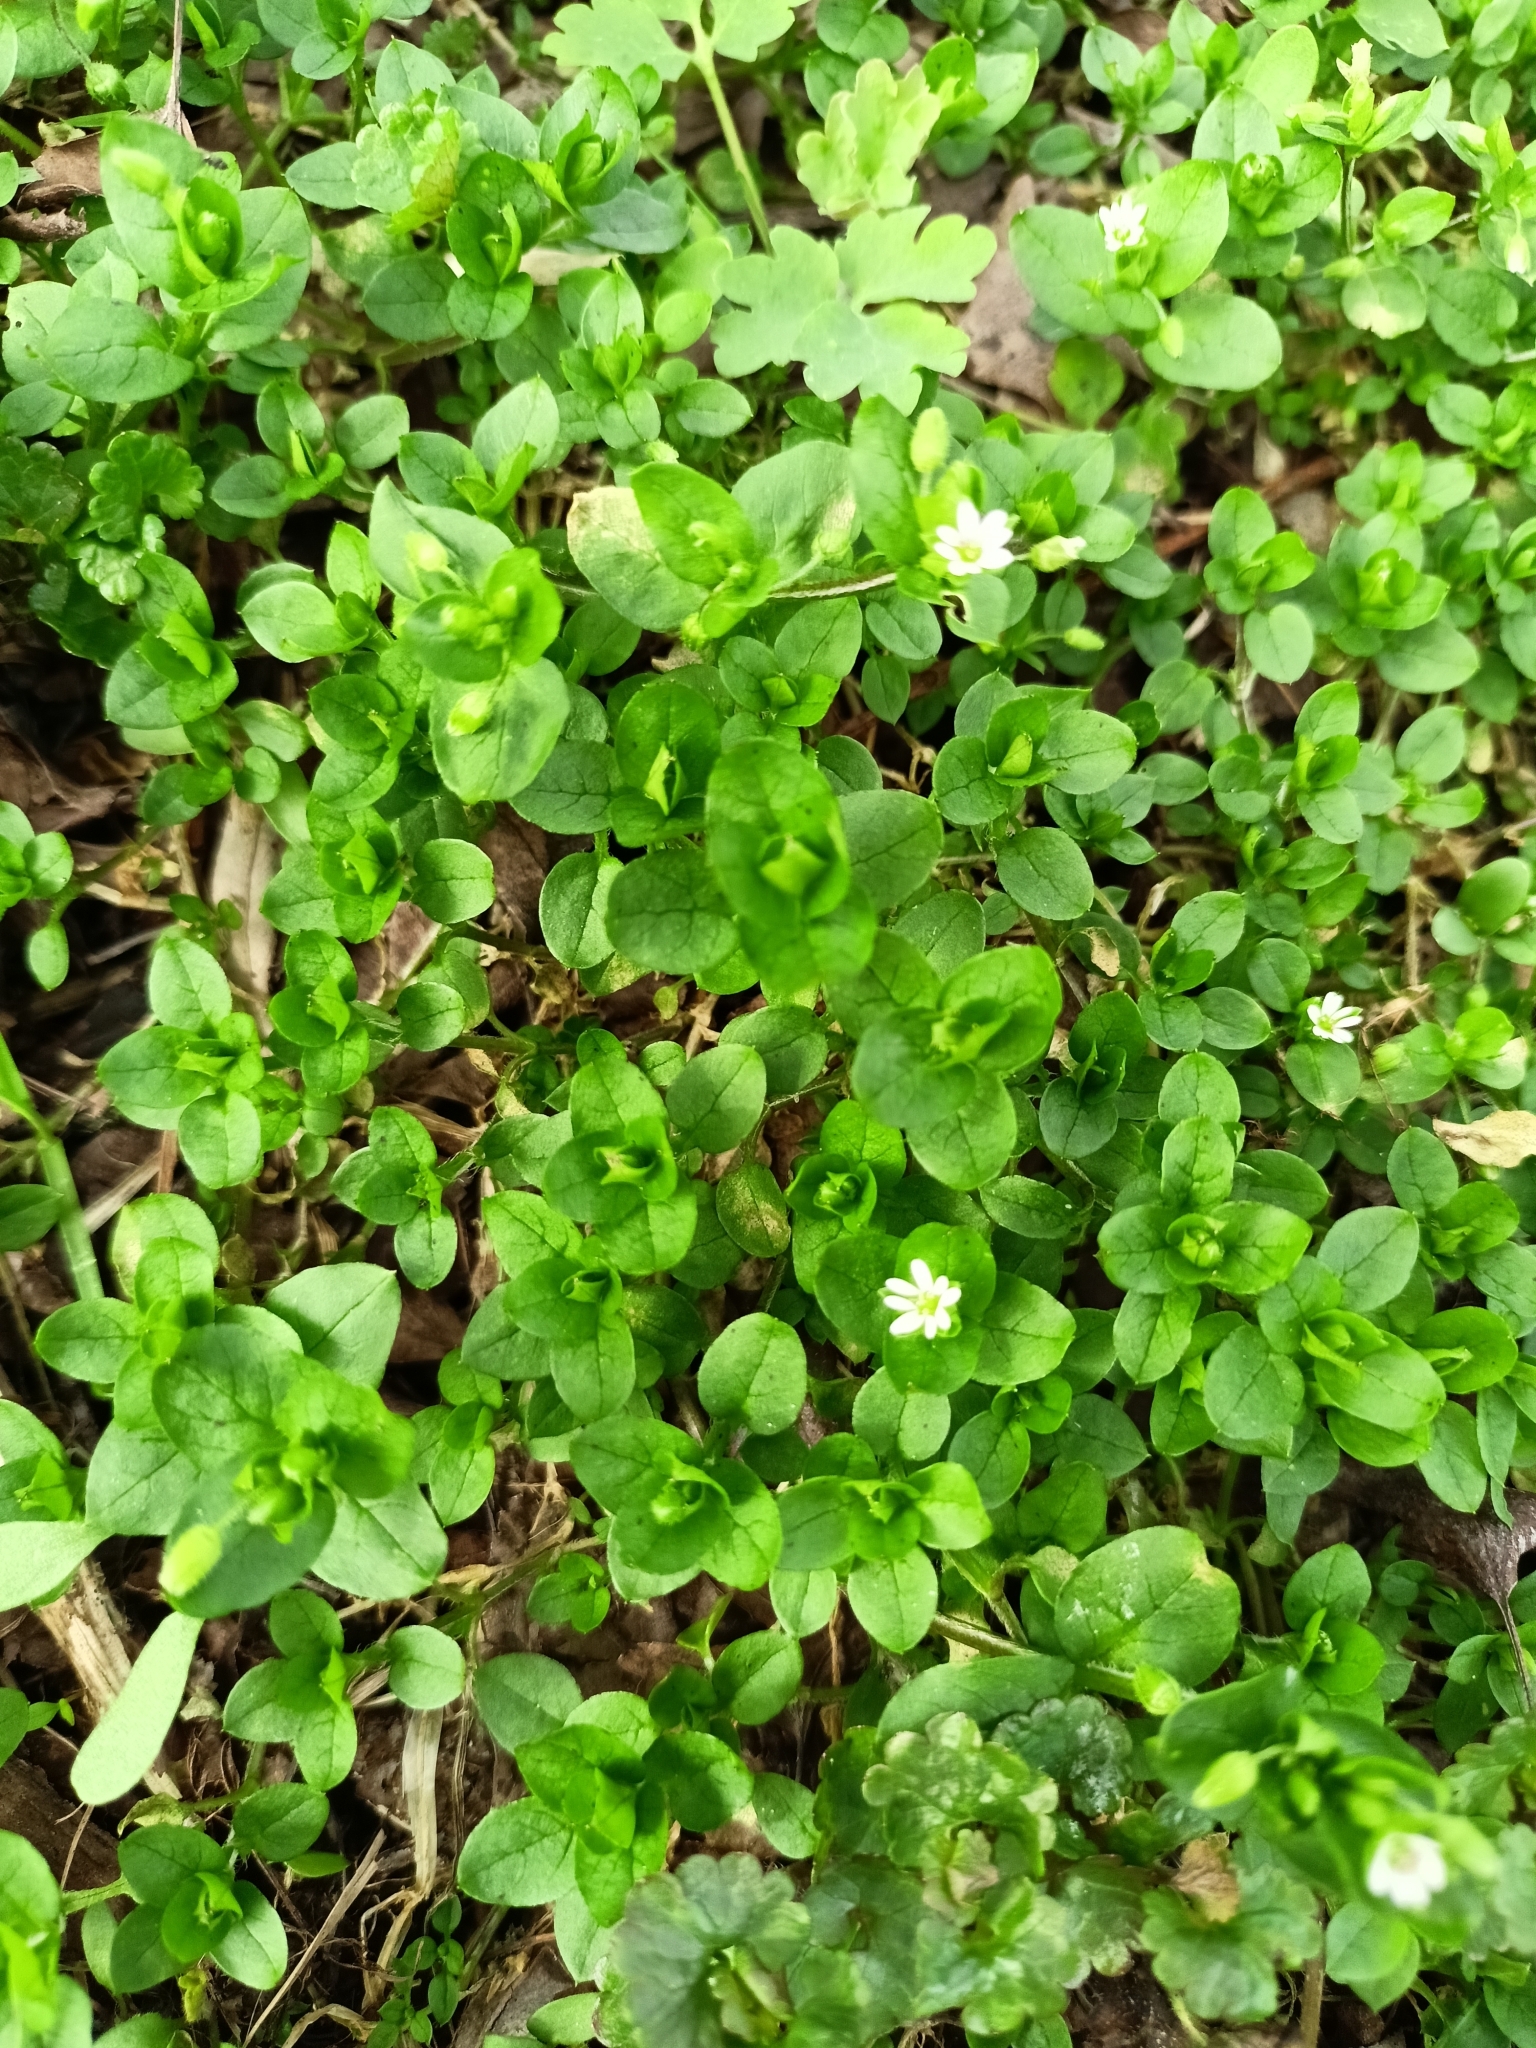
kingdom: Plantae
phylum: Tracheophyta
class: Magnoliopsida
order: Caryophyllales
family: Caryophyllaceae
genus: Stellaria
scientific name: Stellaria media
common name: Common chickweed
